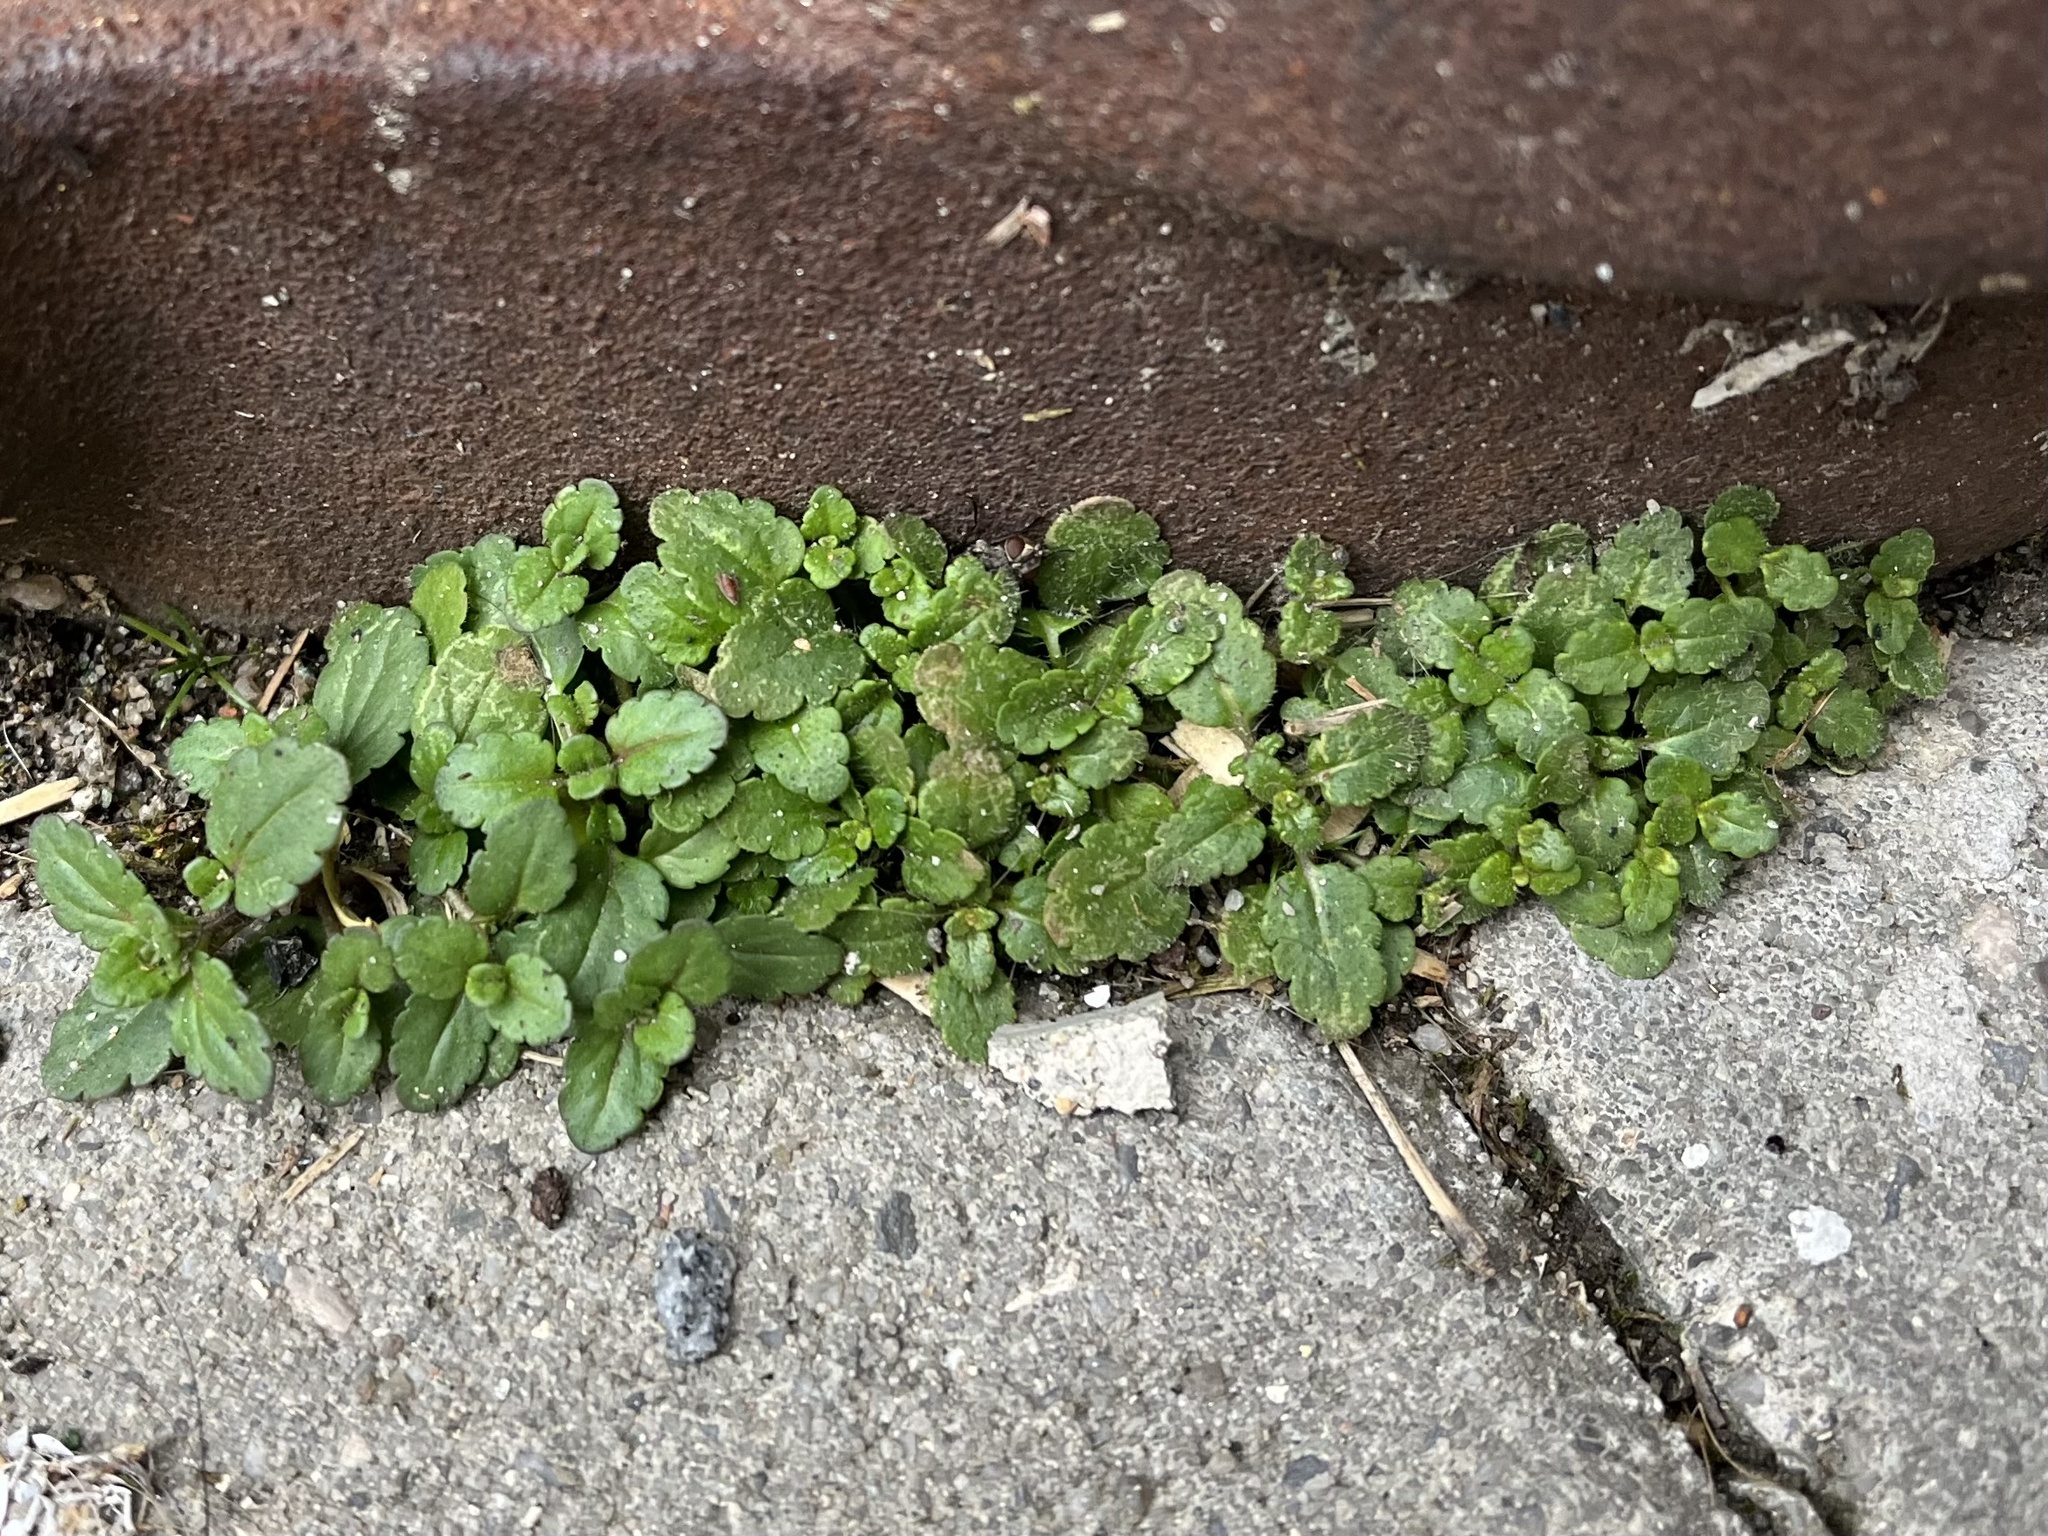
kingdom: Plantae
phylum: Tracheophyta
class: Magnoliopsida
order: Lamiales
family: Plantaginaceae
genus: Veronica
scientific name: Veronica arvensis
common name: Corn speedwell
